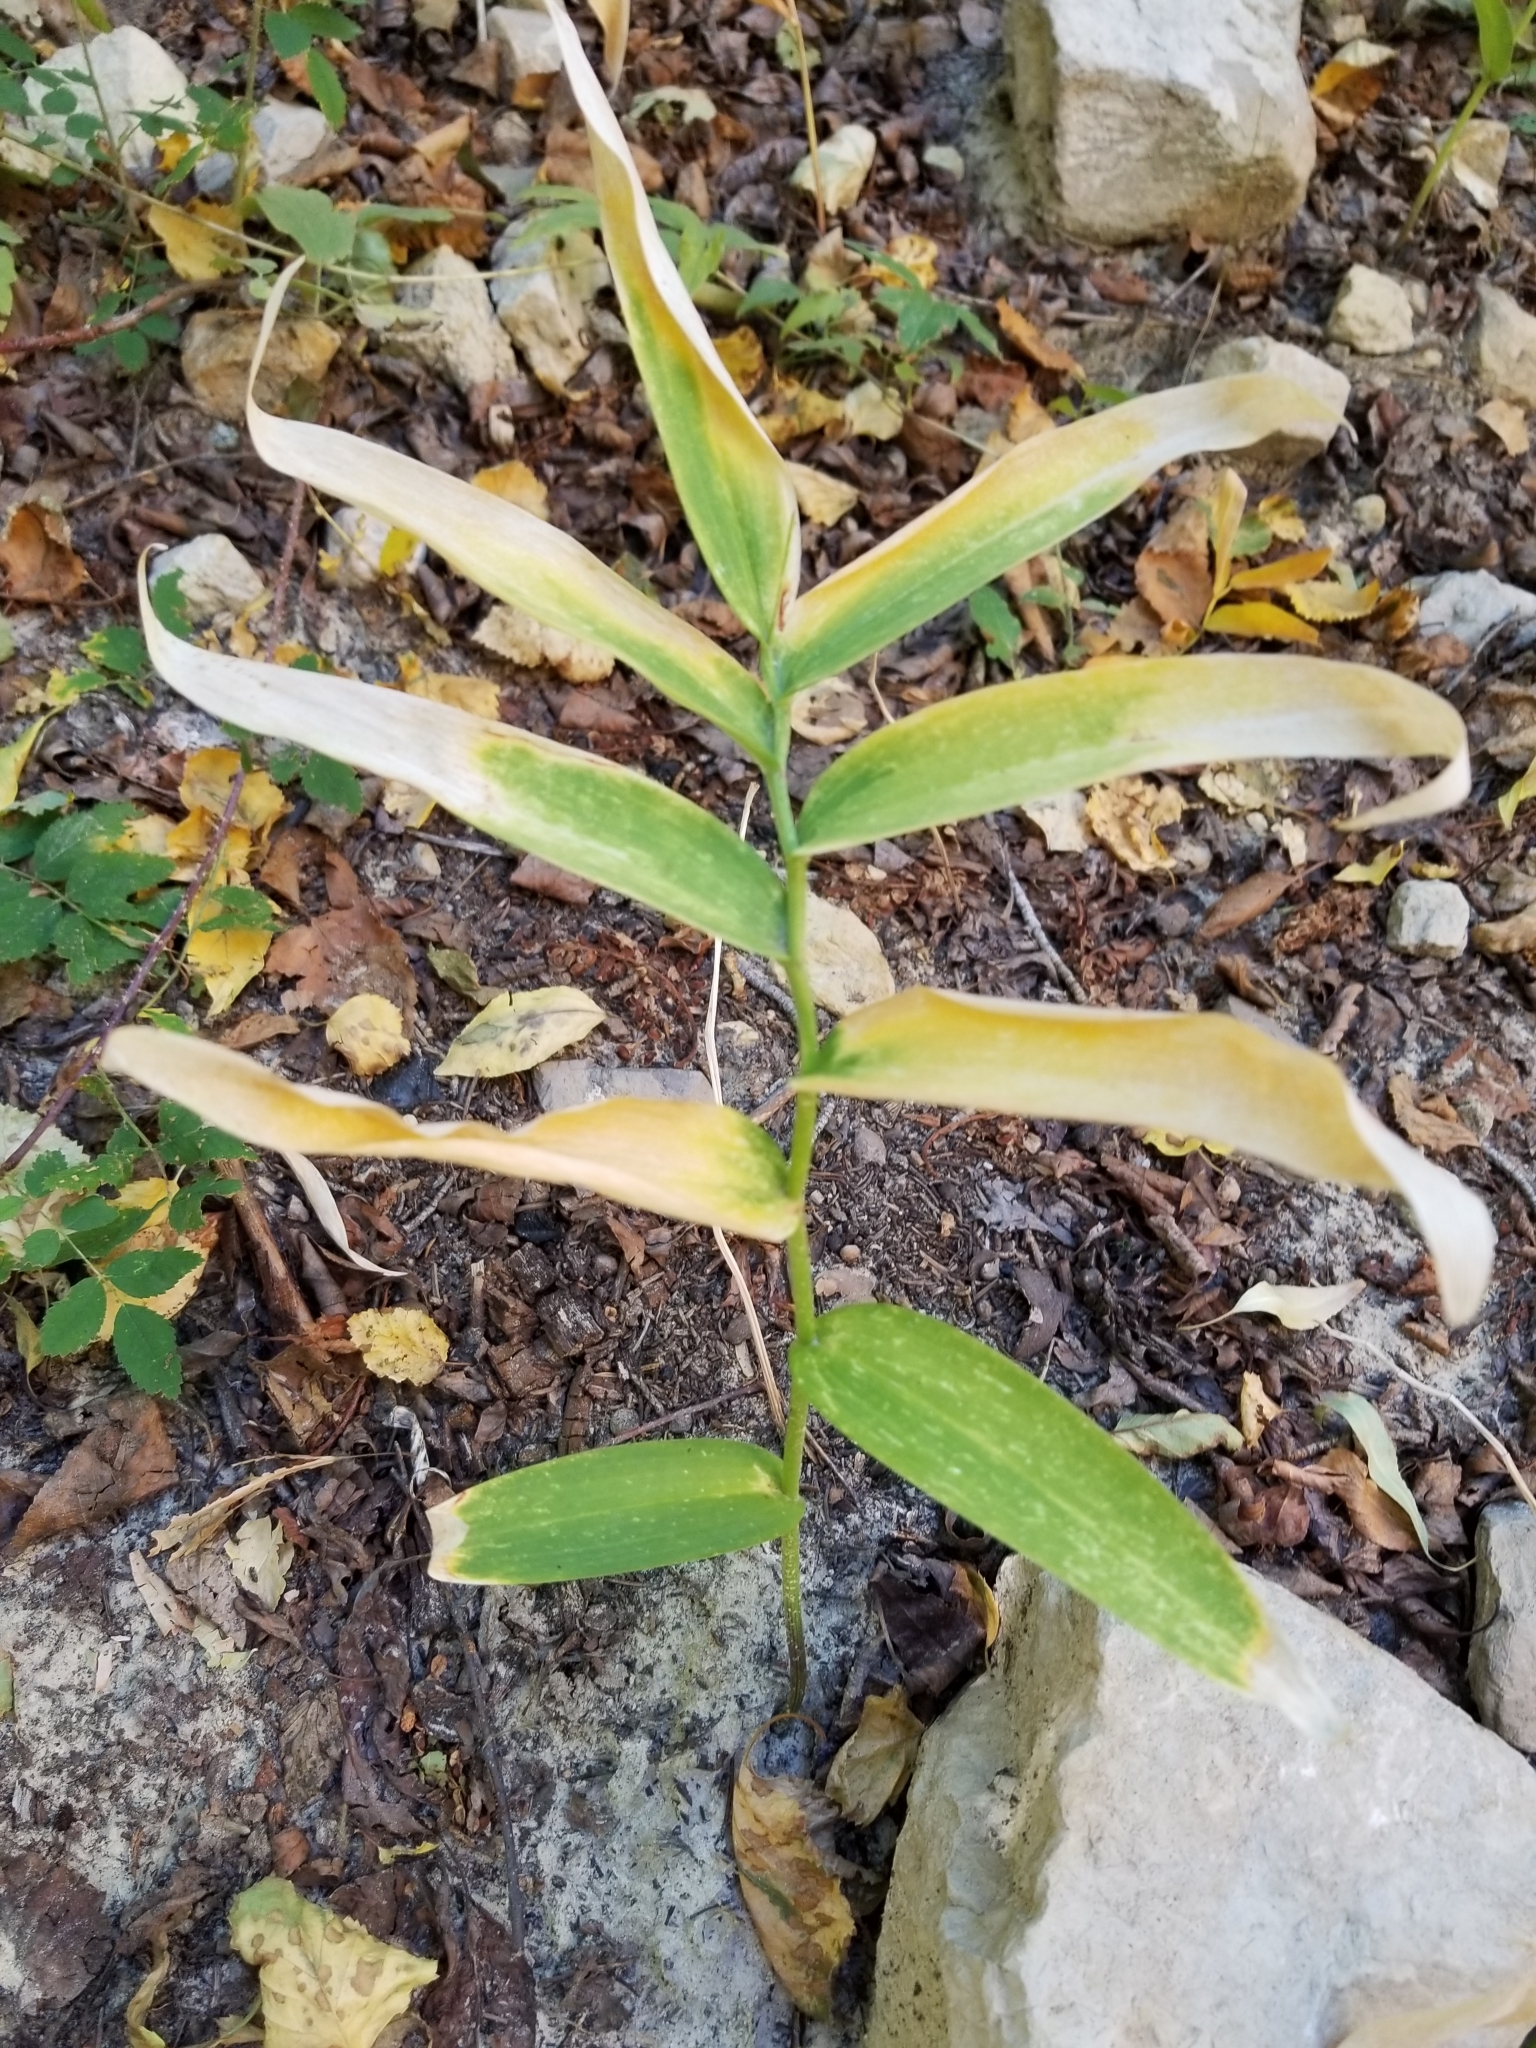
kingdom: Plantae
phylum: Tracheophyta
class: Liliopsida
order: Asparagales
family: Asparagaceae
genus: Maianthemum
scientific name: Maianthemum stellatum
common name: Little false solomon's seal
